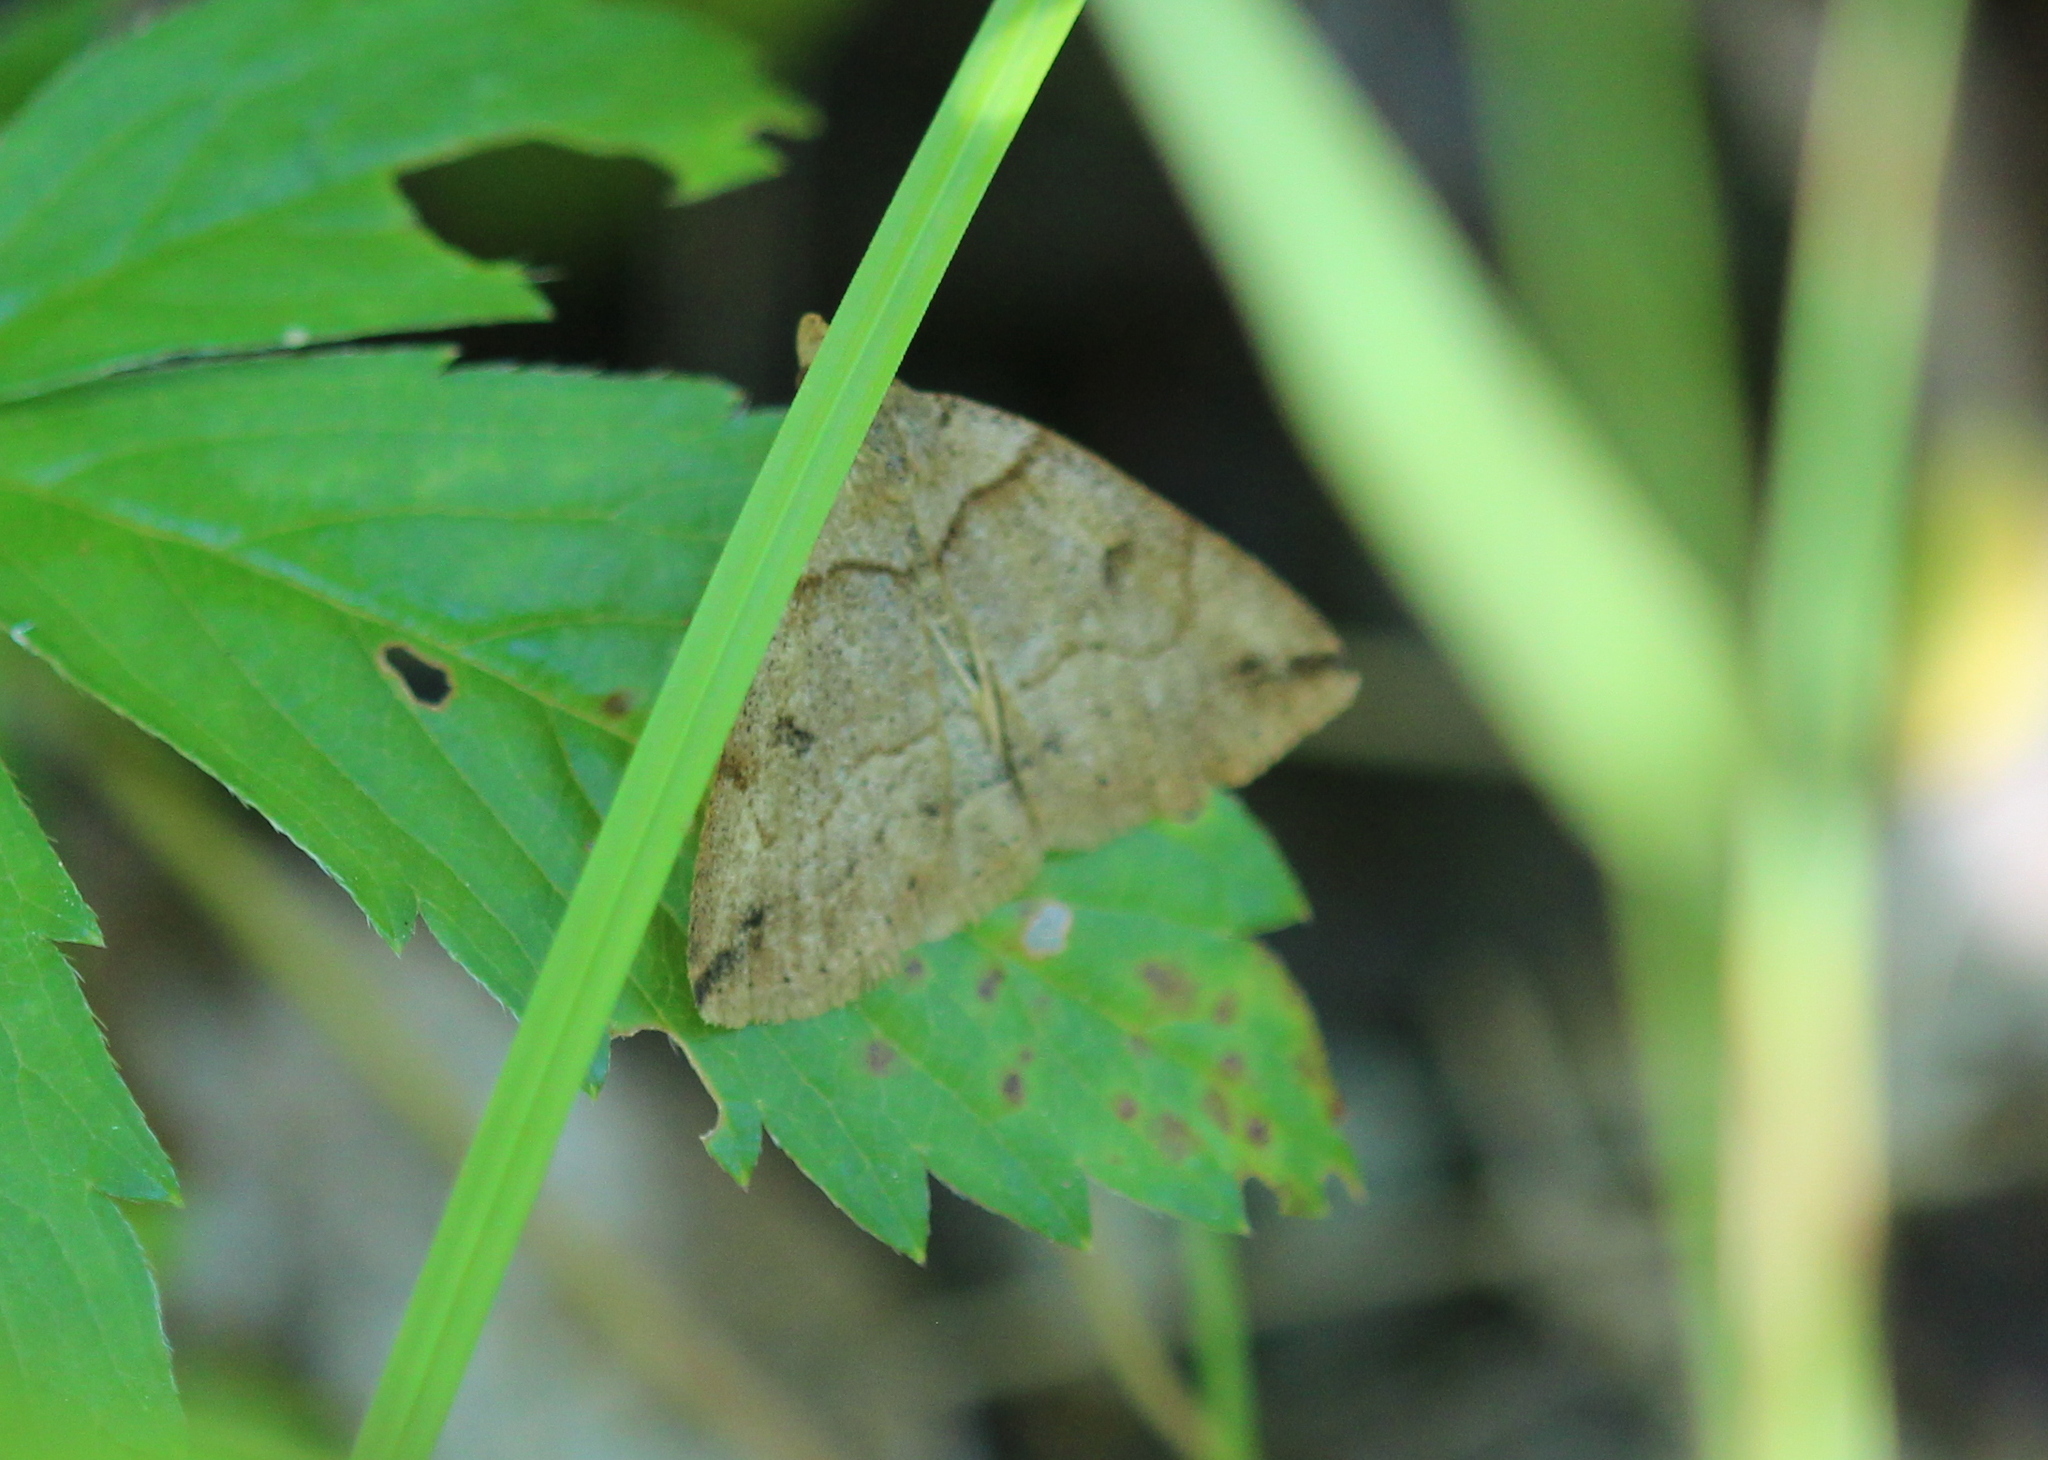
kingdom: Animalia
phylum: Arthropoda
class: Insecta
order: Lepidoptera
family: Erebidae
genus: Zanclognatha
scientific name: Zanclognatha laevigata
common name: Variable fan-foot
